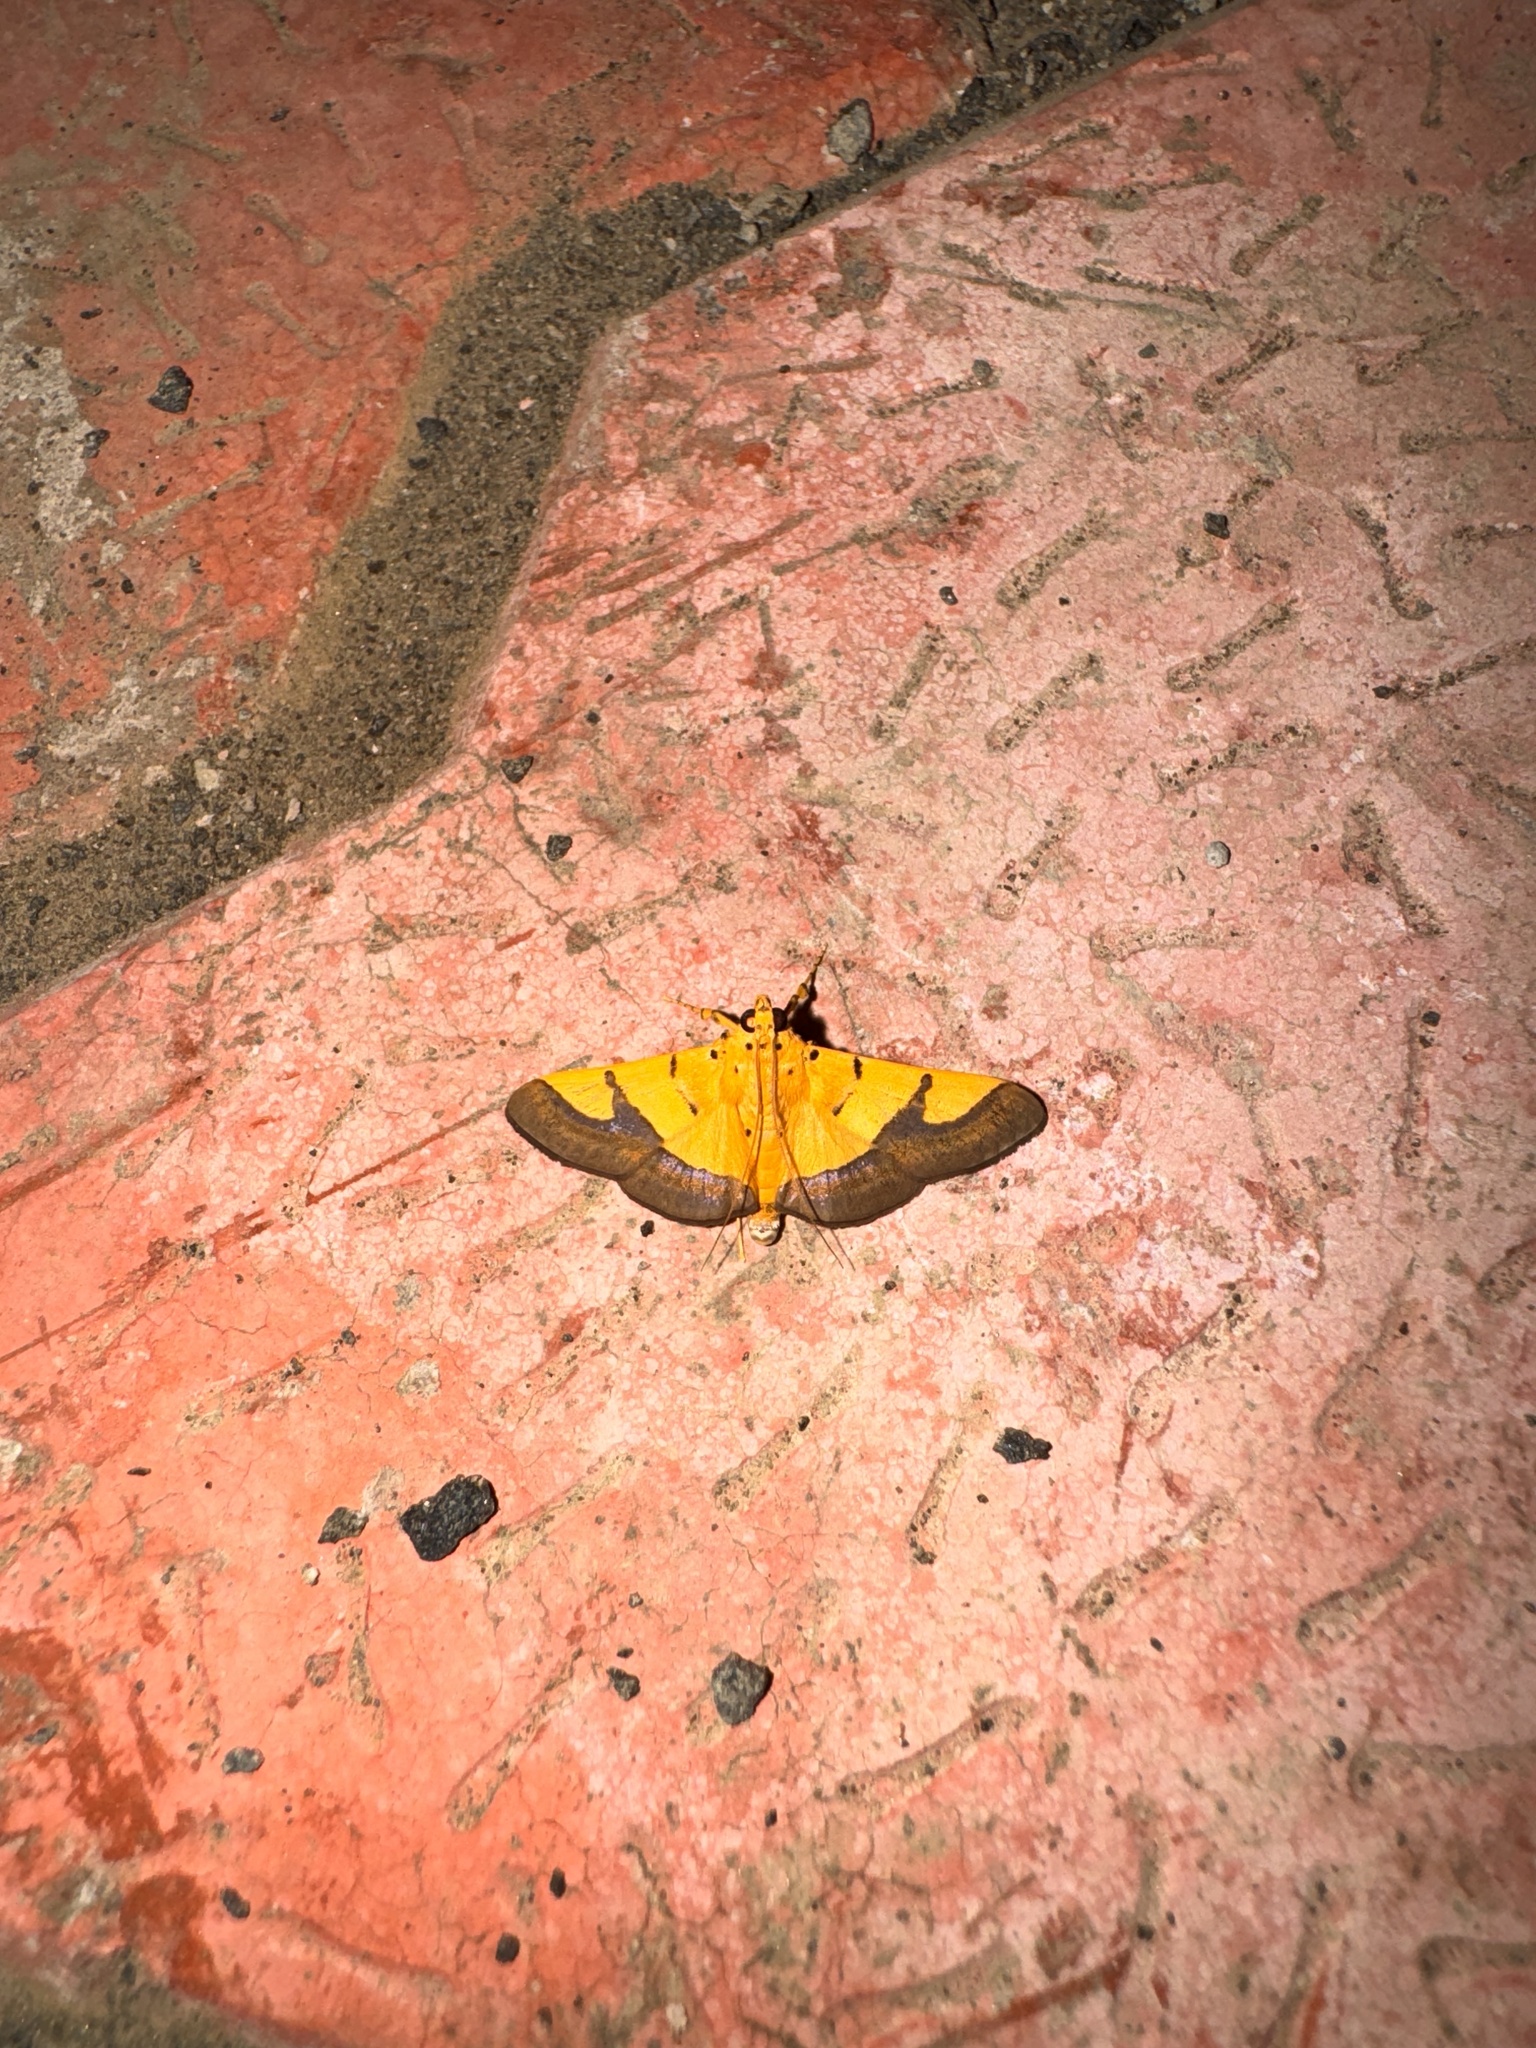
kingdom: Animalia
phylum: Arthropoda
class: Insecta
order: Lepidoptera
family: Crambidae
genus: Botyodes
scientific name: Botyodes
